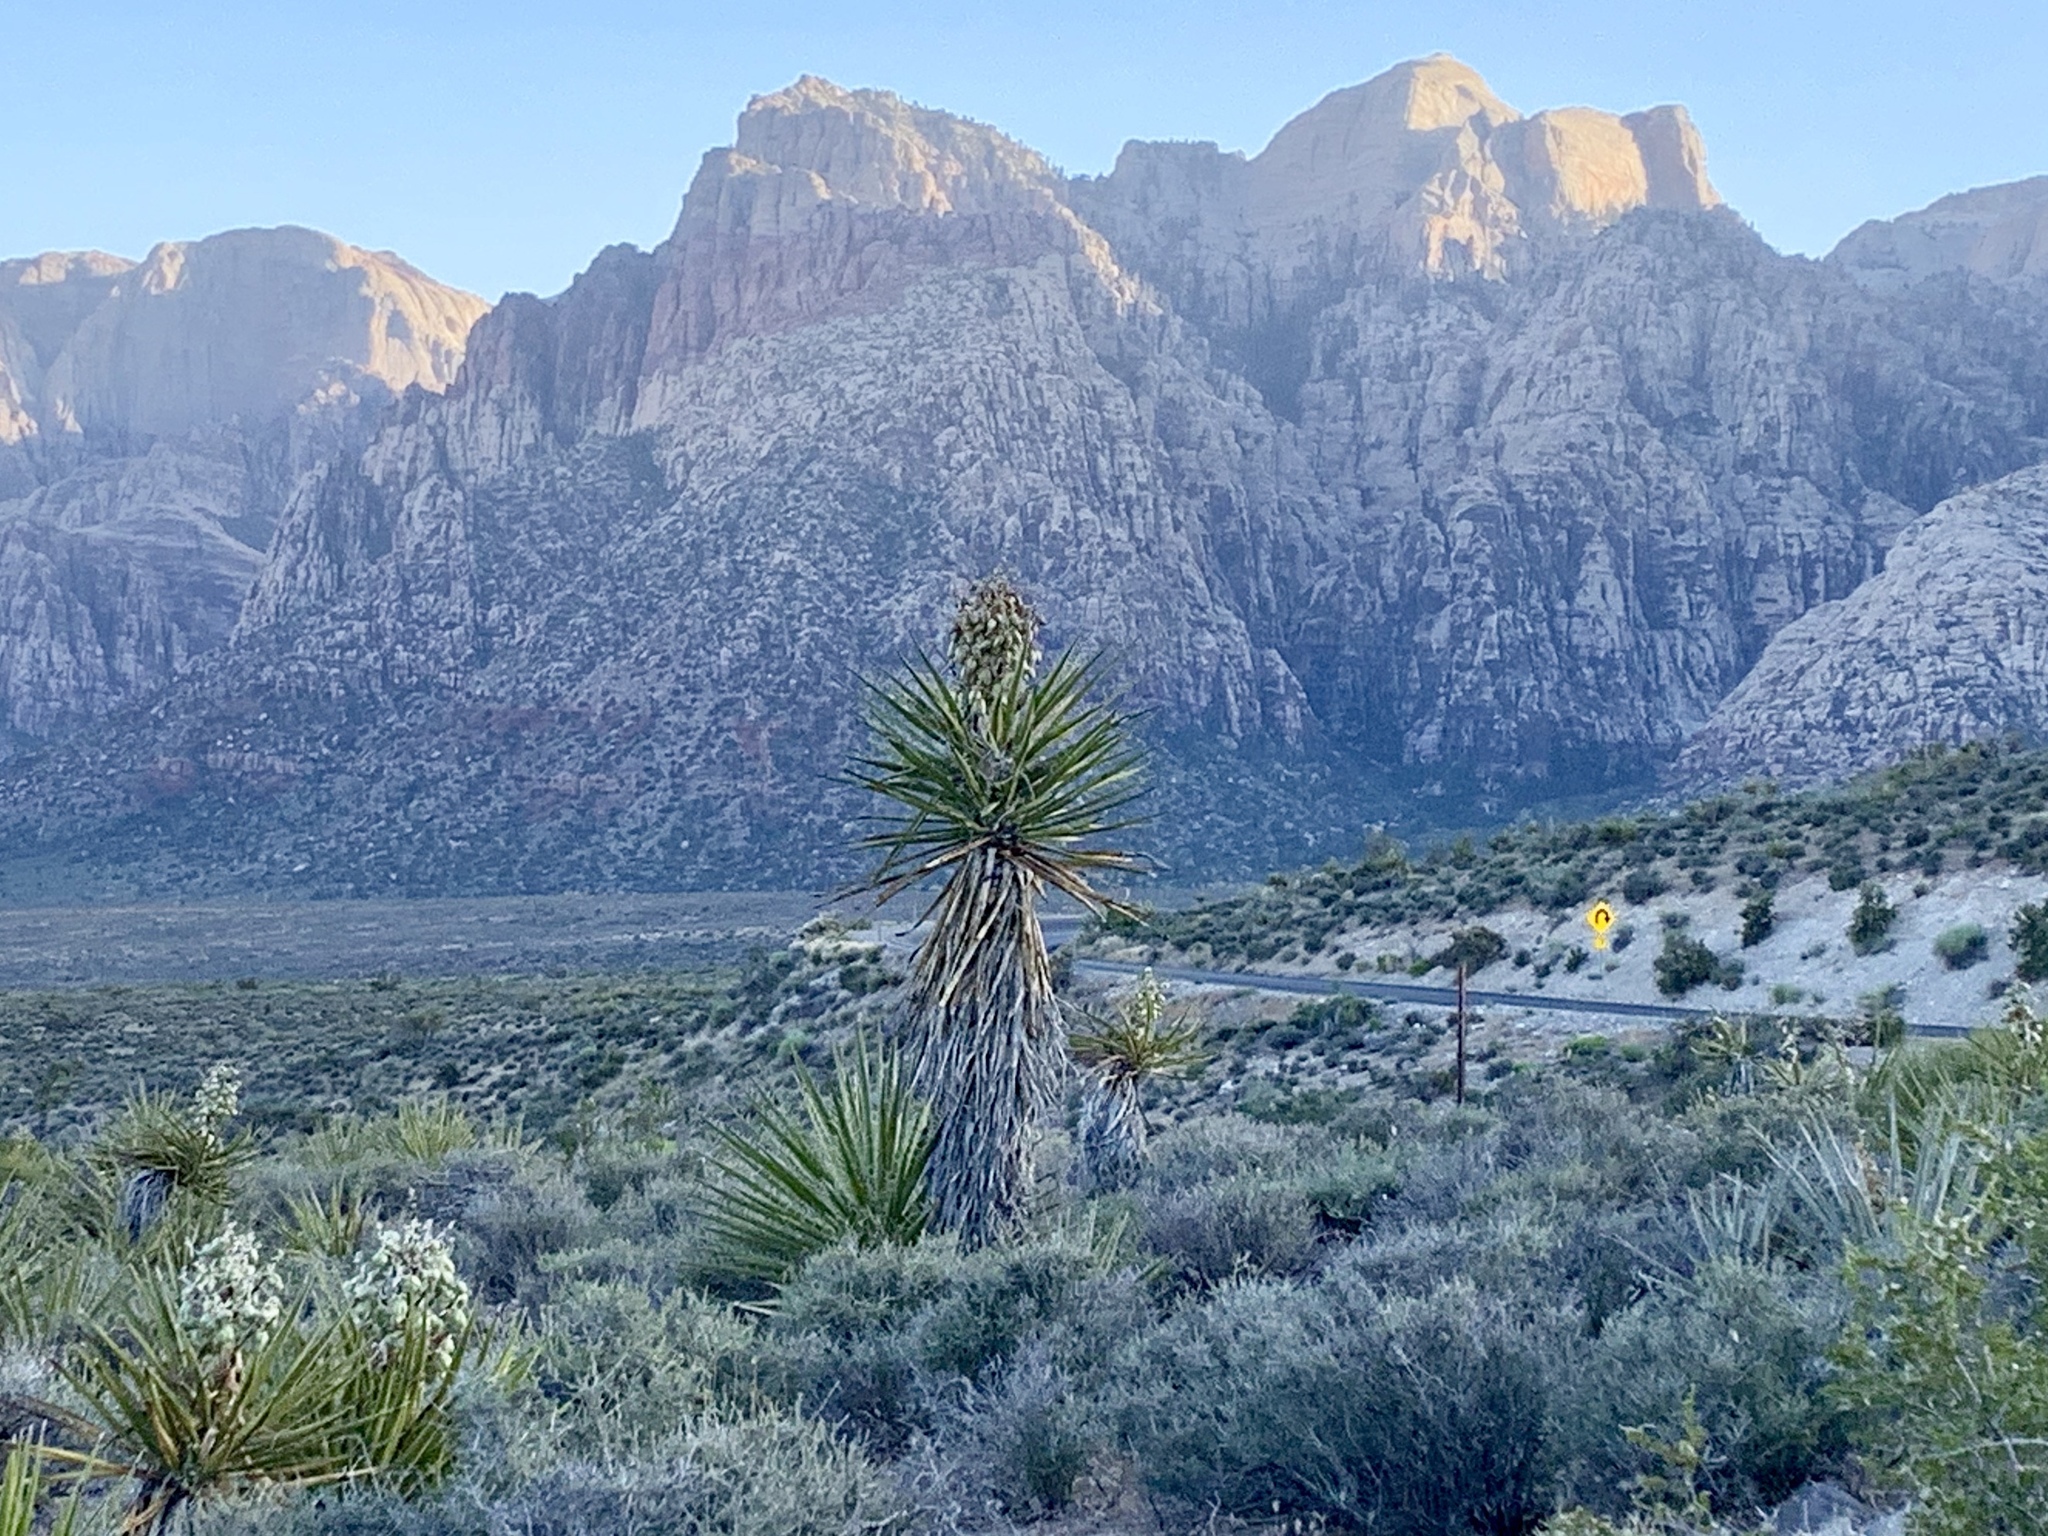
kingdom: Plantae
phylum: Tracheophyta
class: Liliopsida
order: Asparagales
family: Asparagaceae
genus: Yucca
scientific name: Yucca schidigera
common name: Mojave yucca
